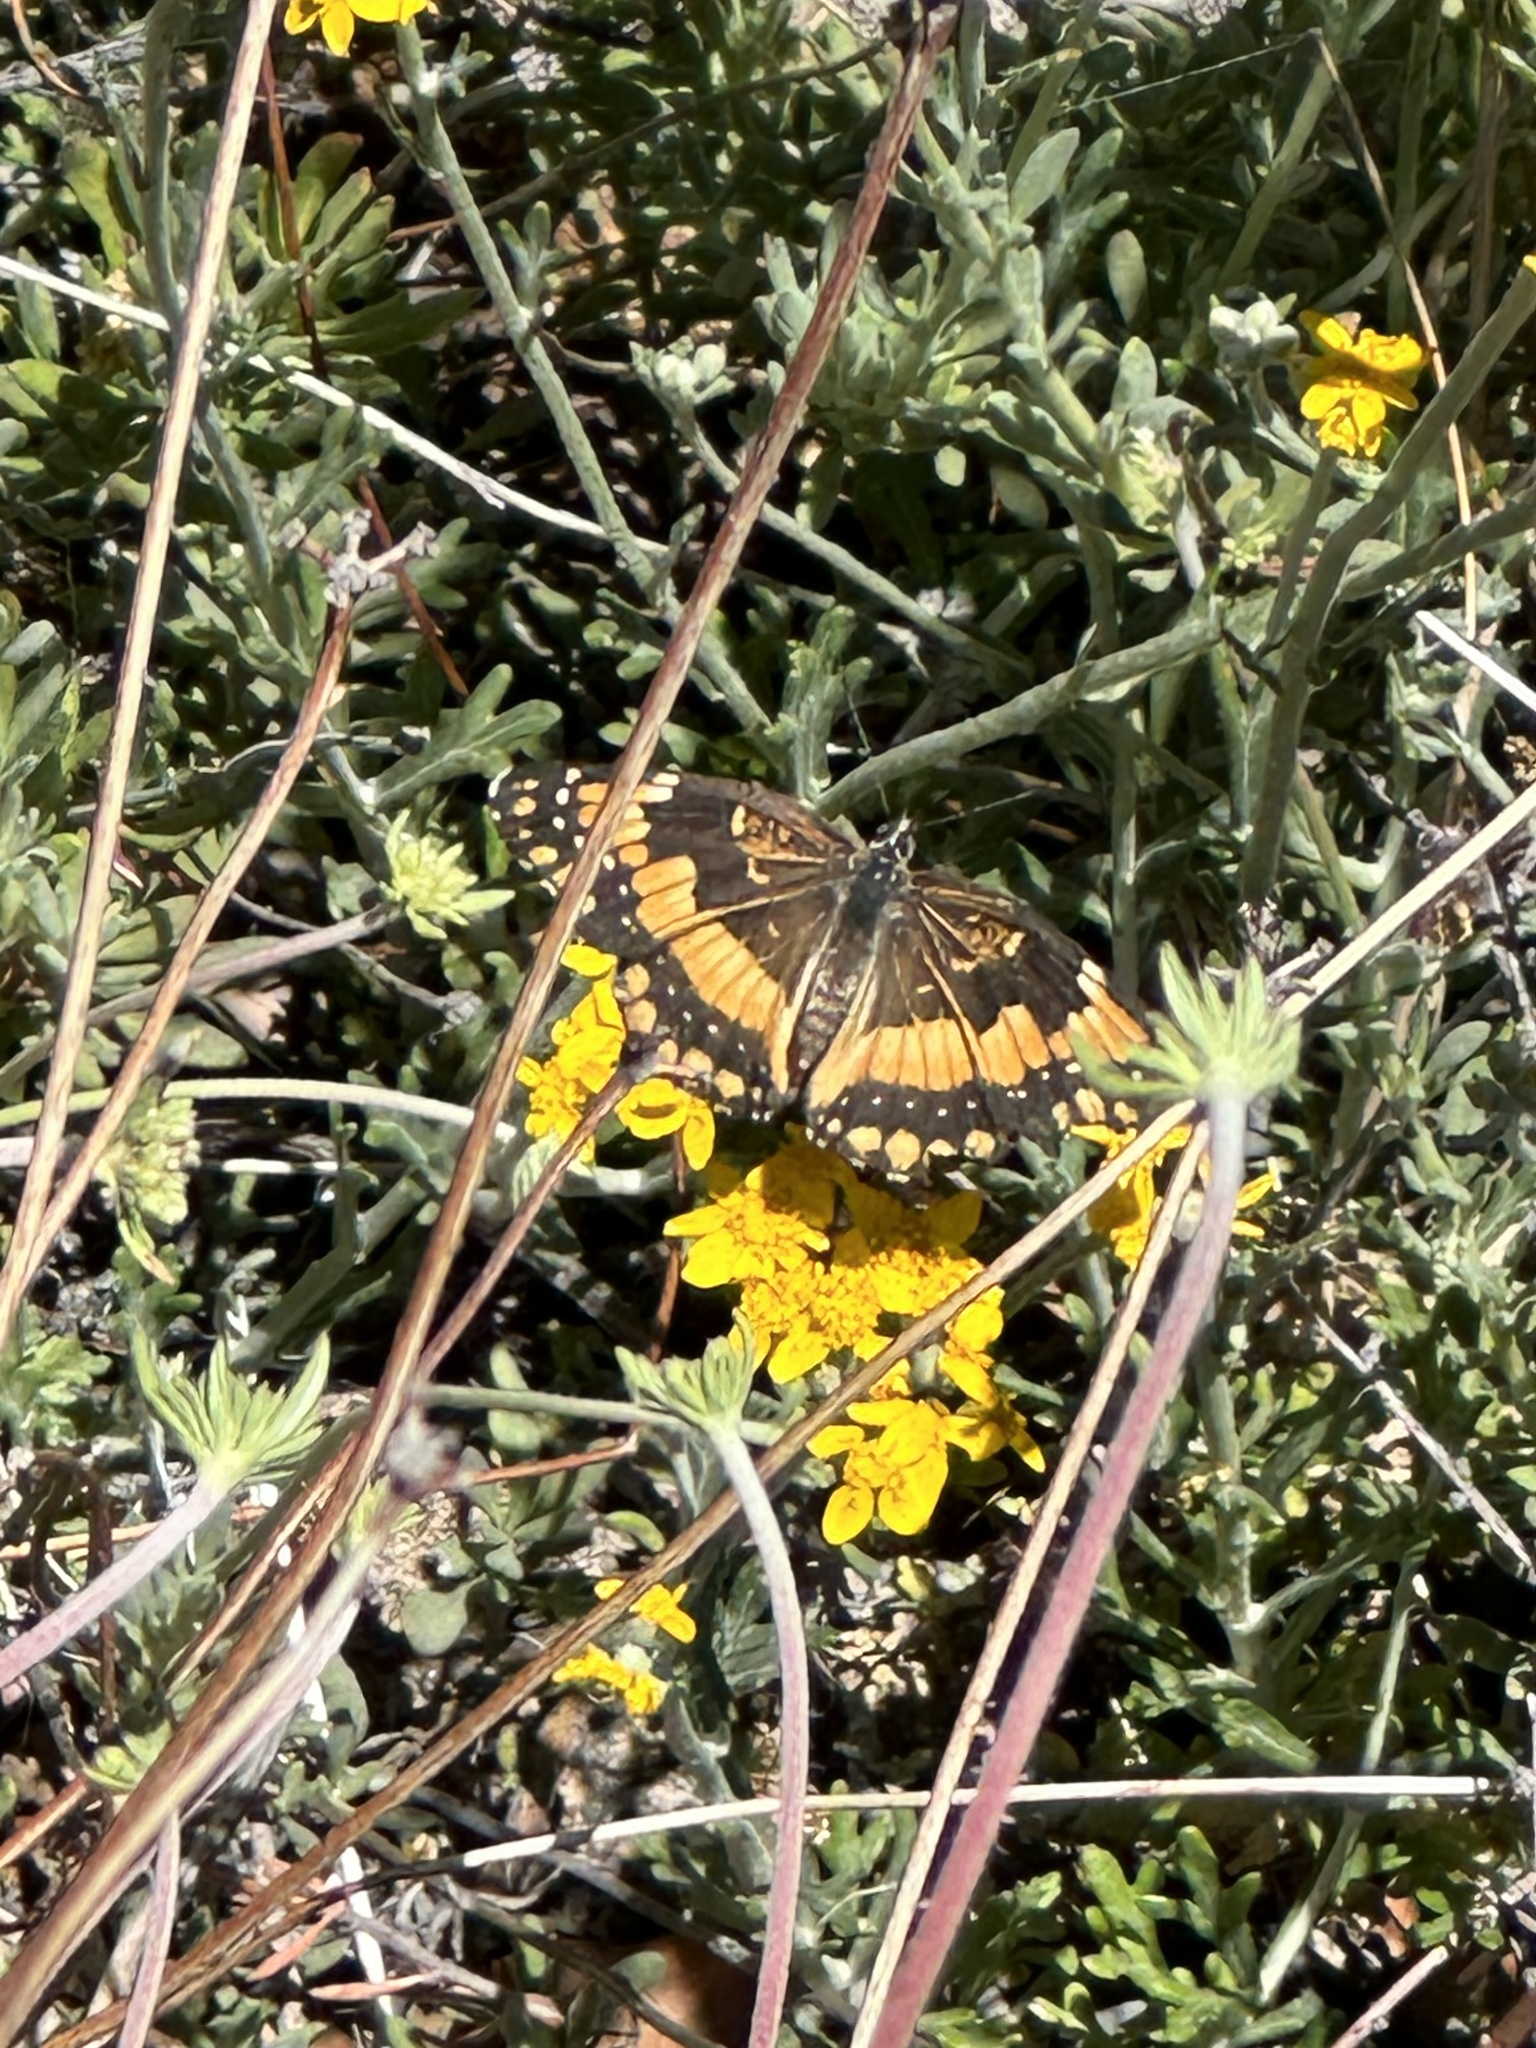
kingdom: Animalia
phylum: Arthropoda
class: Insecta
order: Lepidoptera
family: Nymphalidae
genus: Chlosyne
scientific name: Chlosyne californica
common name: California patch
